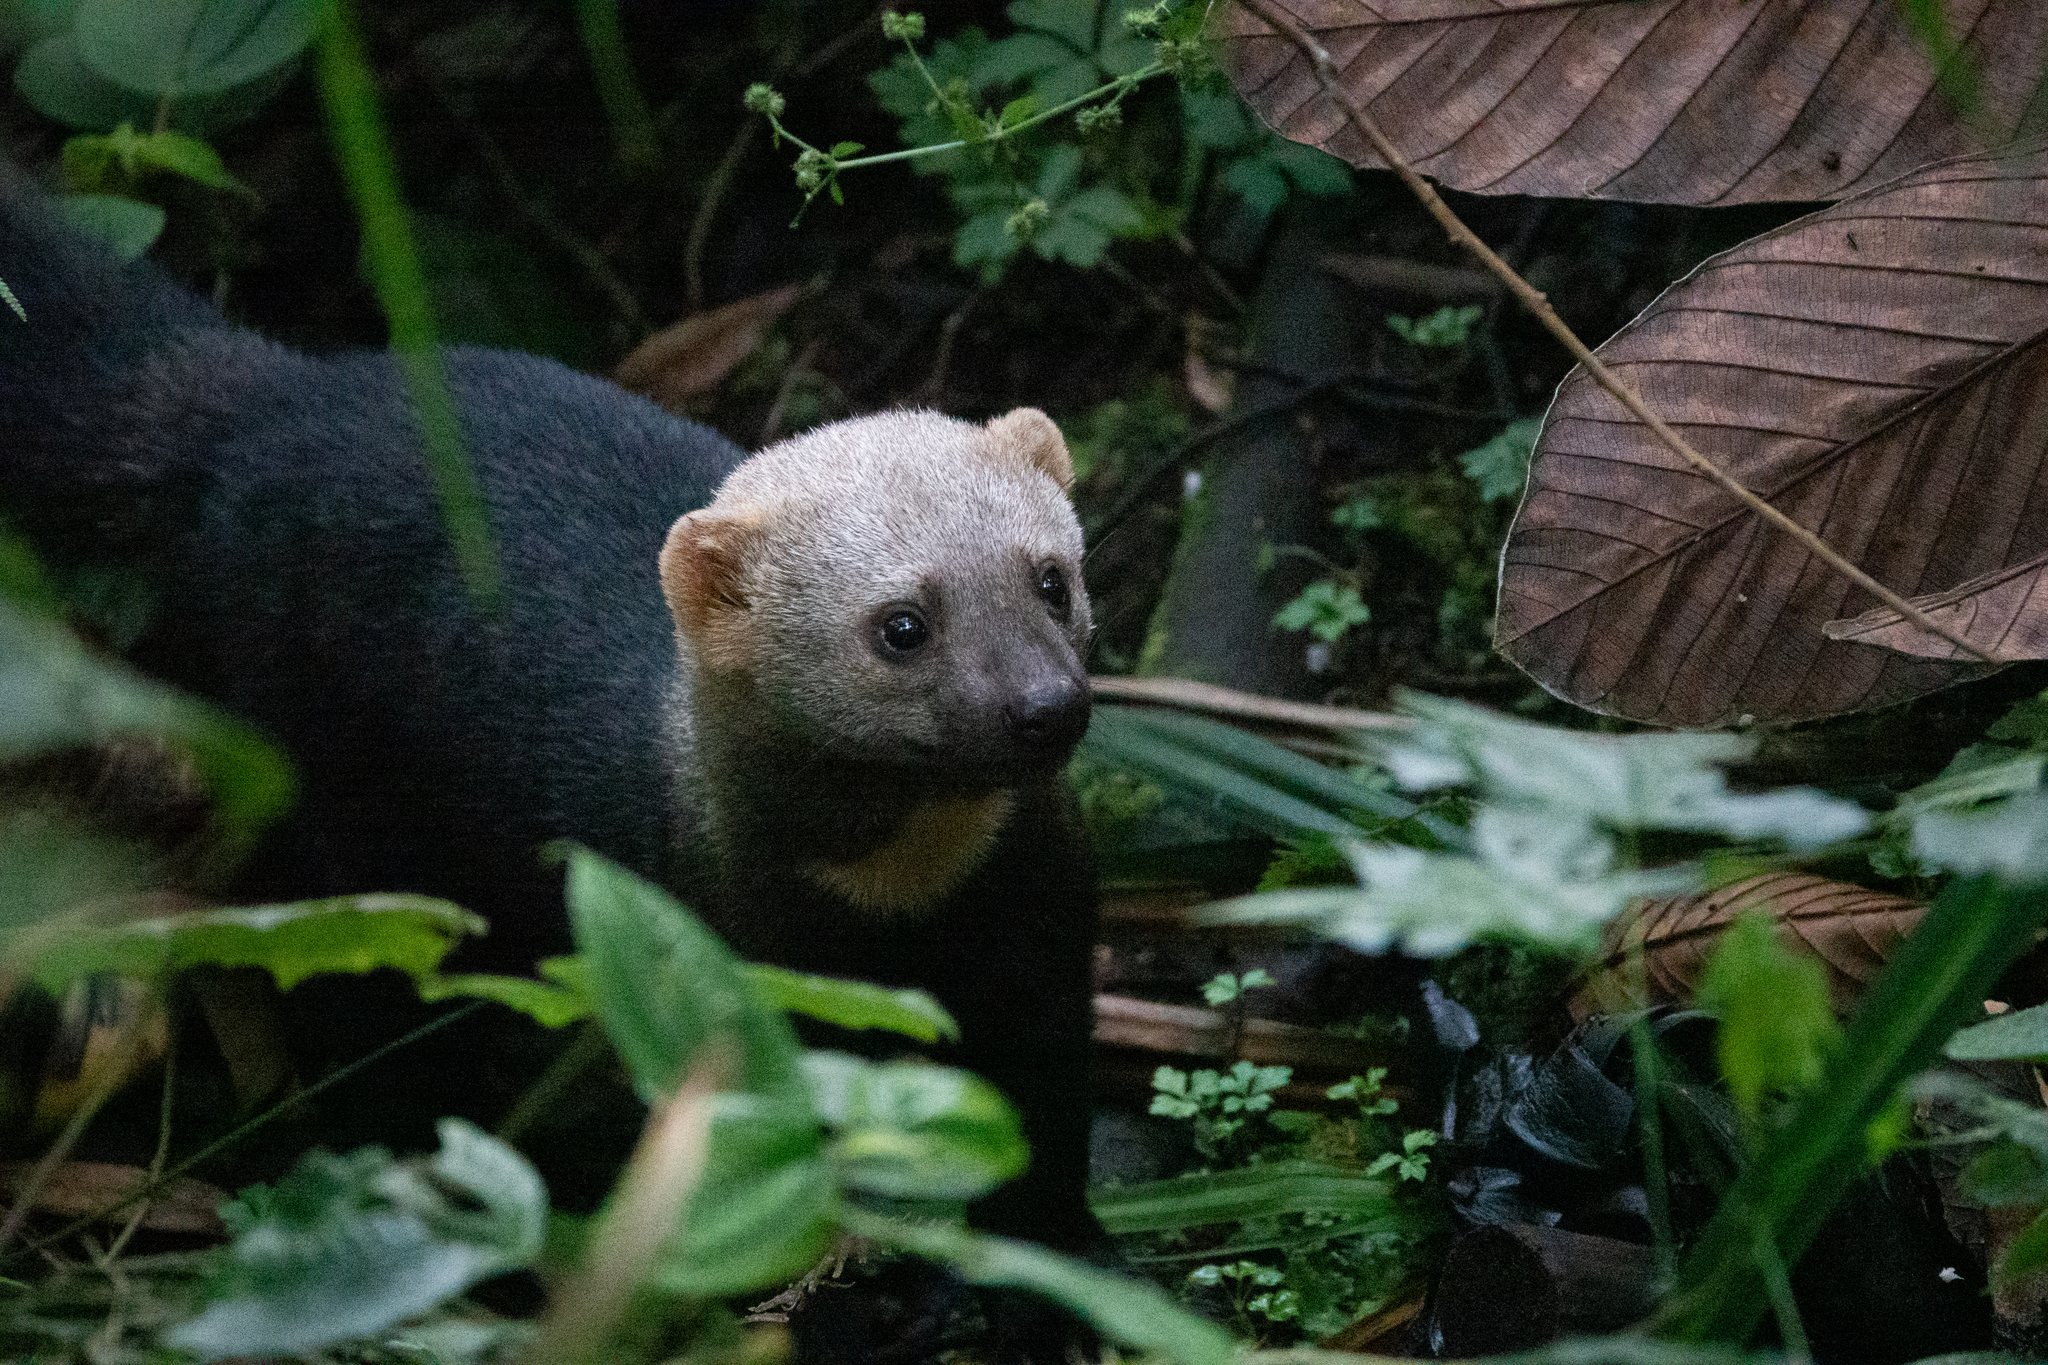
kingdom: Animalia
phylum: Chordata
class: Mammalia
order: Carnivora
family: Mustelidae
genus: Eira
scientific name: Eira barbara
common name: Tayra
